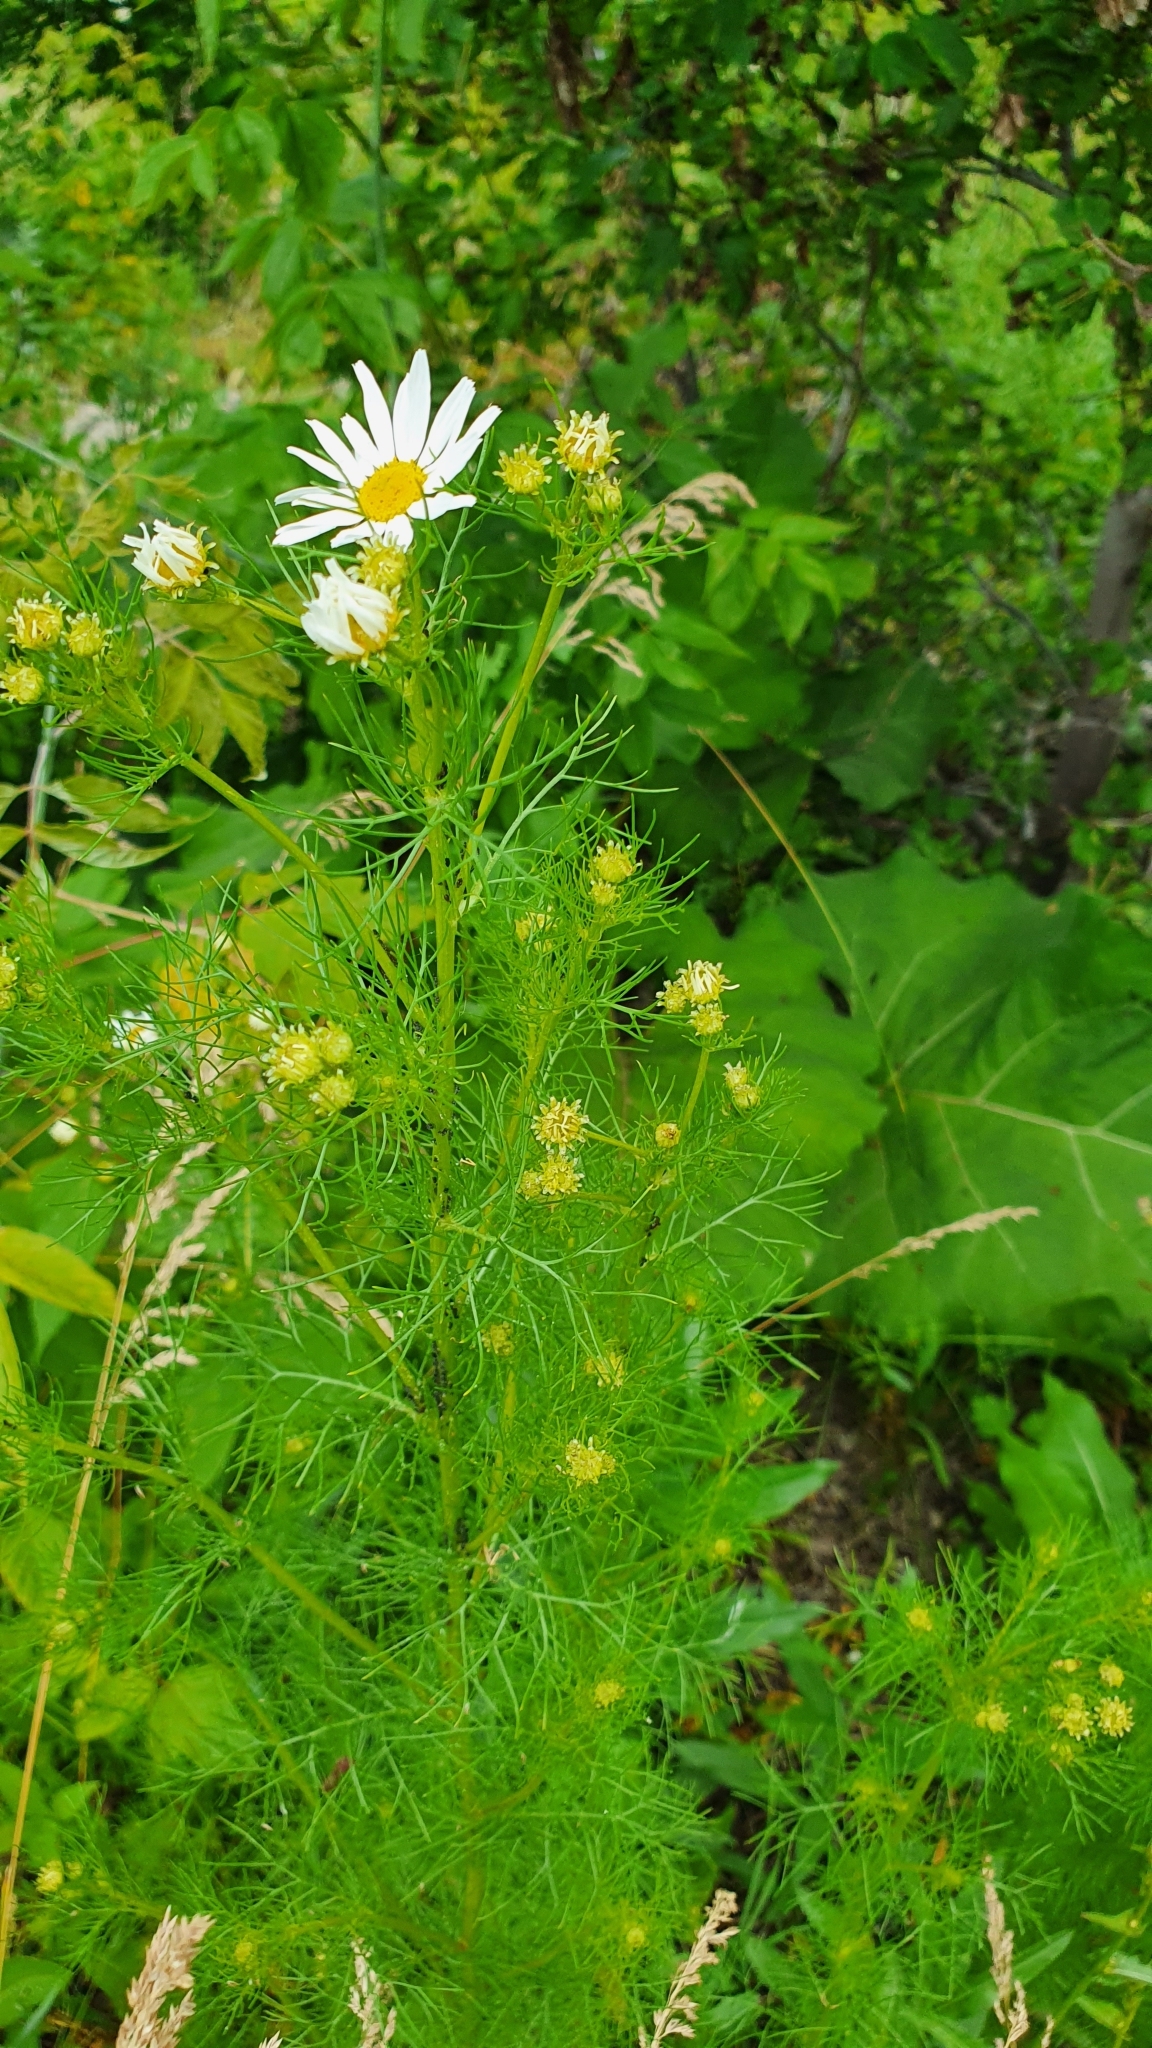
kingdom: Plantae
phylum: Tracheophyta
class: Magnoliopsida
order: Asterales
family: Asteraceae
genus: Tripleurospermum
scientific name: Tripleurospermum inodorum
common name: Scentless mayweed
